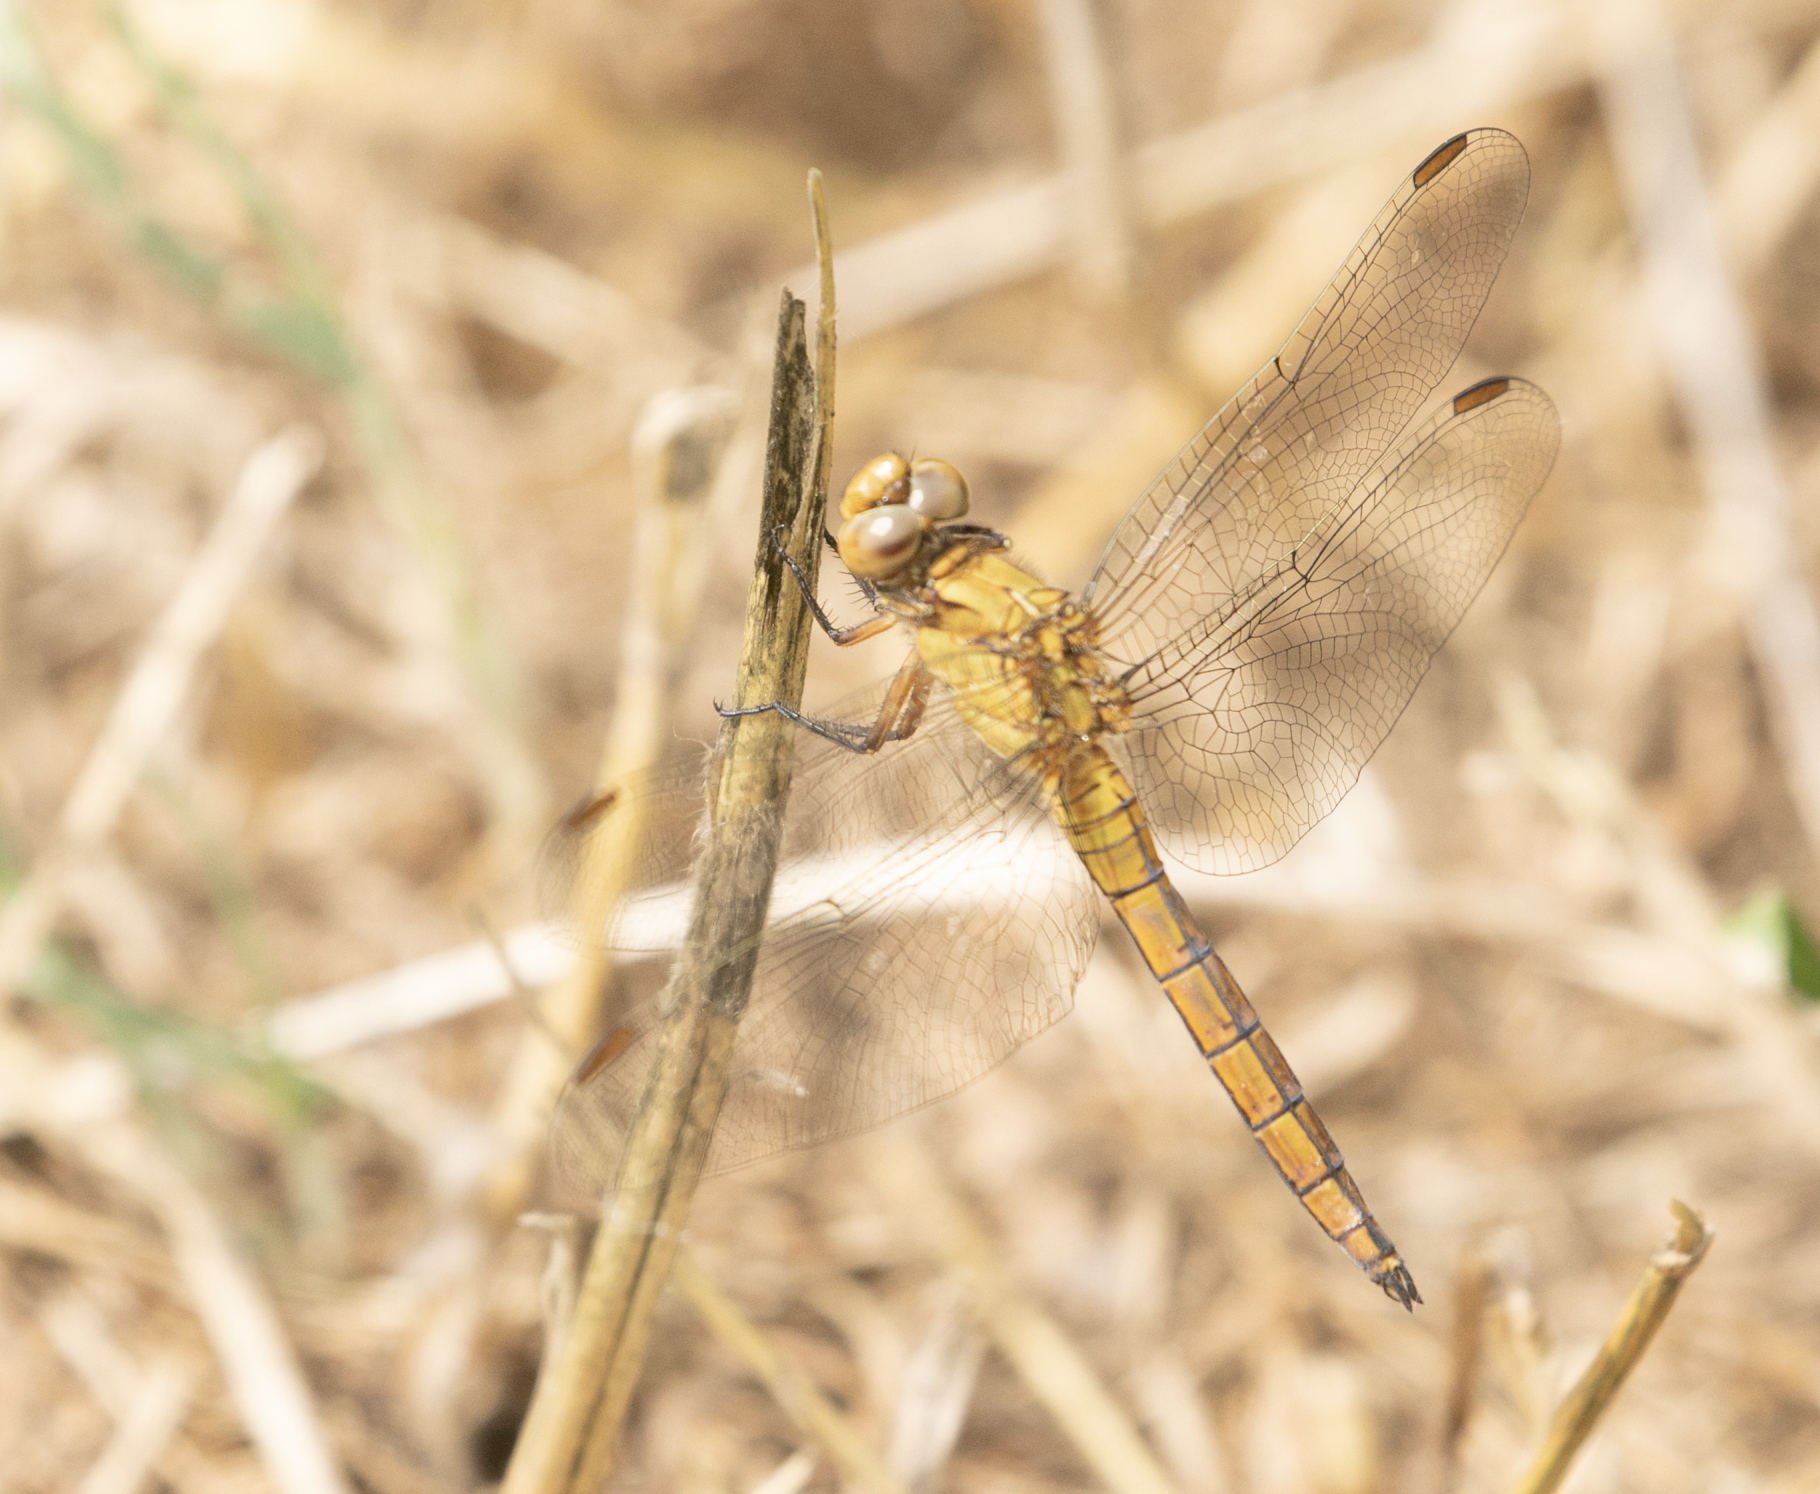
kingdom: Animalia
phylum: Arthropoda
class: Insecta
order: Odonata
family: Libellulidae
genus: Orthetrum
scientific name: Orthetrum coerulescens
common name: Keeled skimmer
